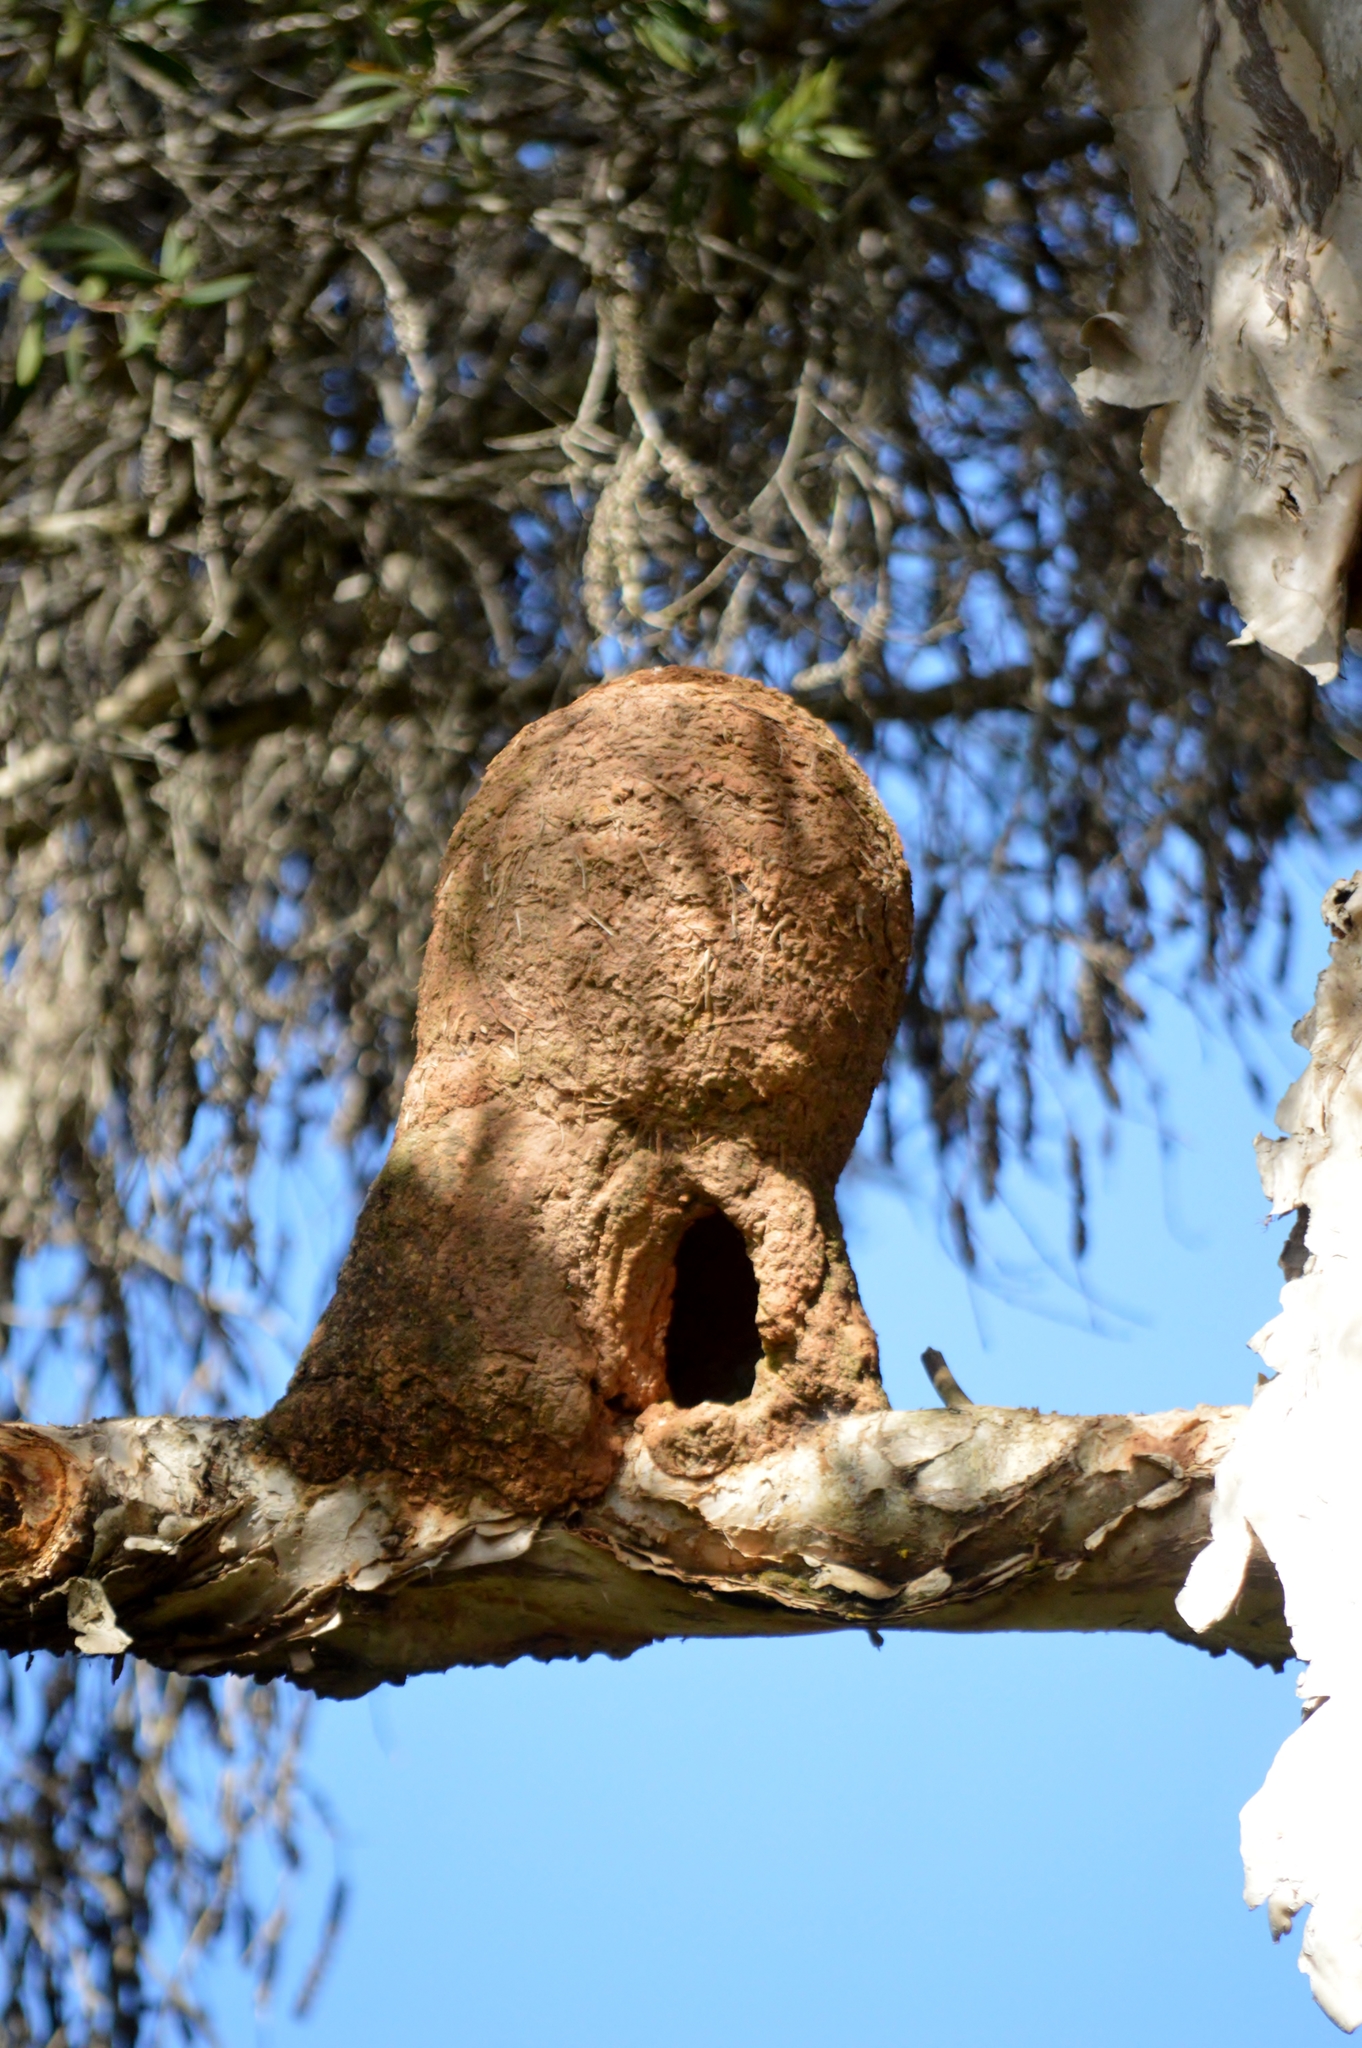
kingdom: Animalia
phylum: Chordata
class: Aves
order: Passeriformes
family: Furnariidae
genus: Furnarius
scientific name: Furnarius rufus
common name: Rufous hornero
